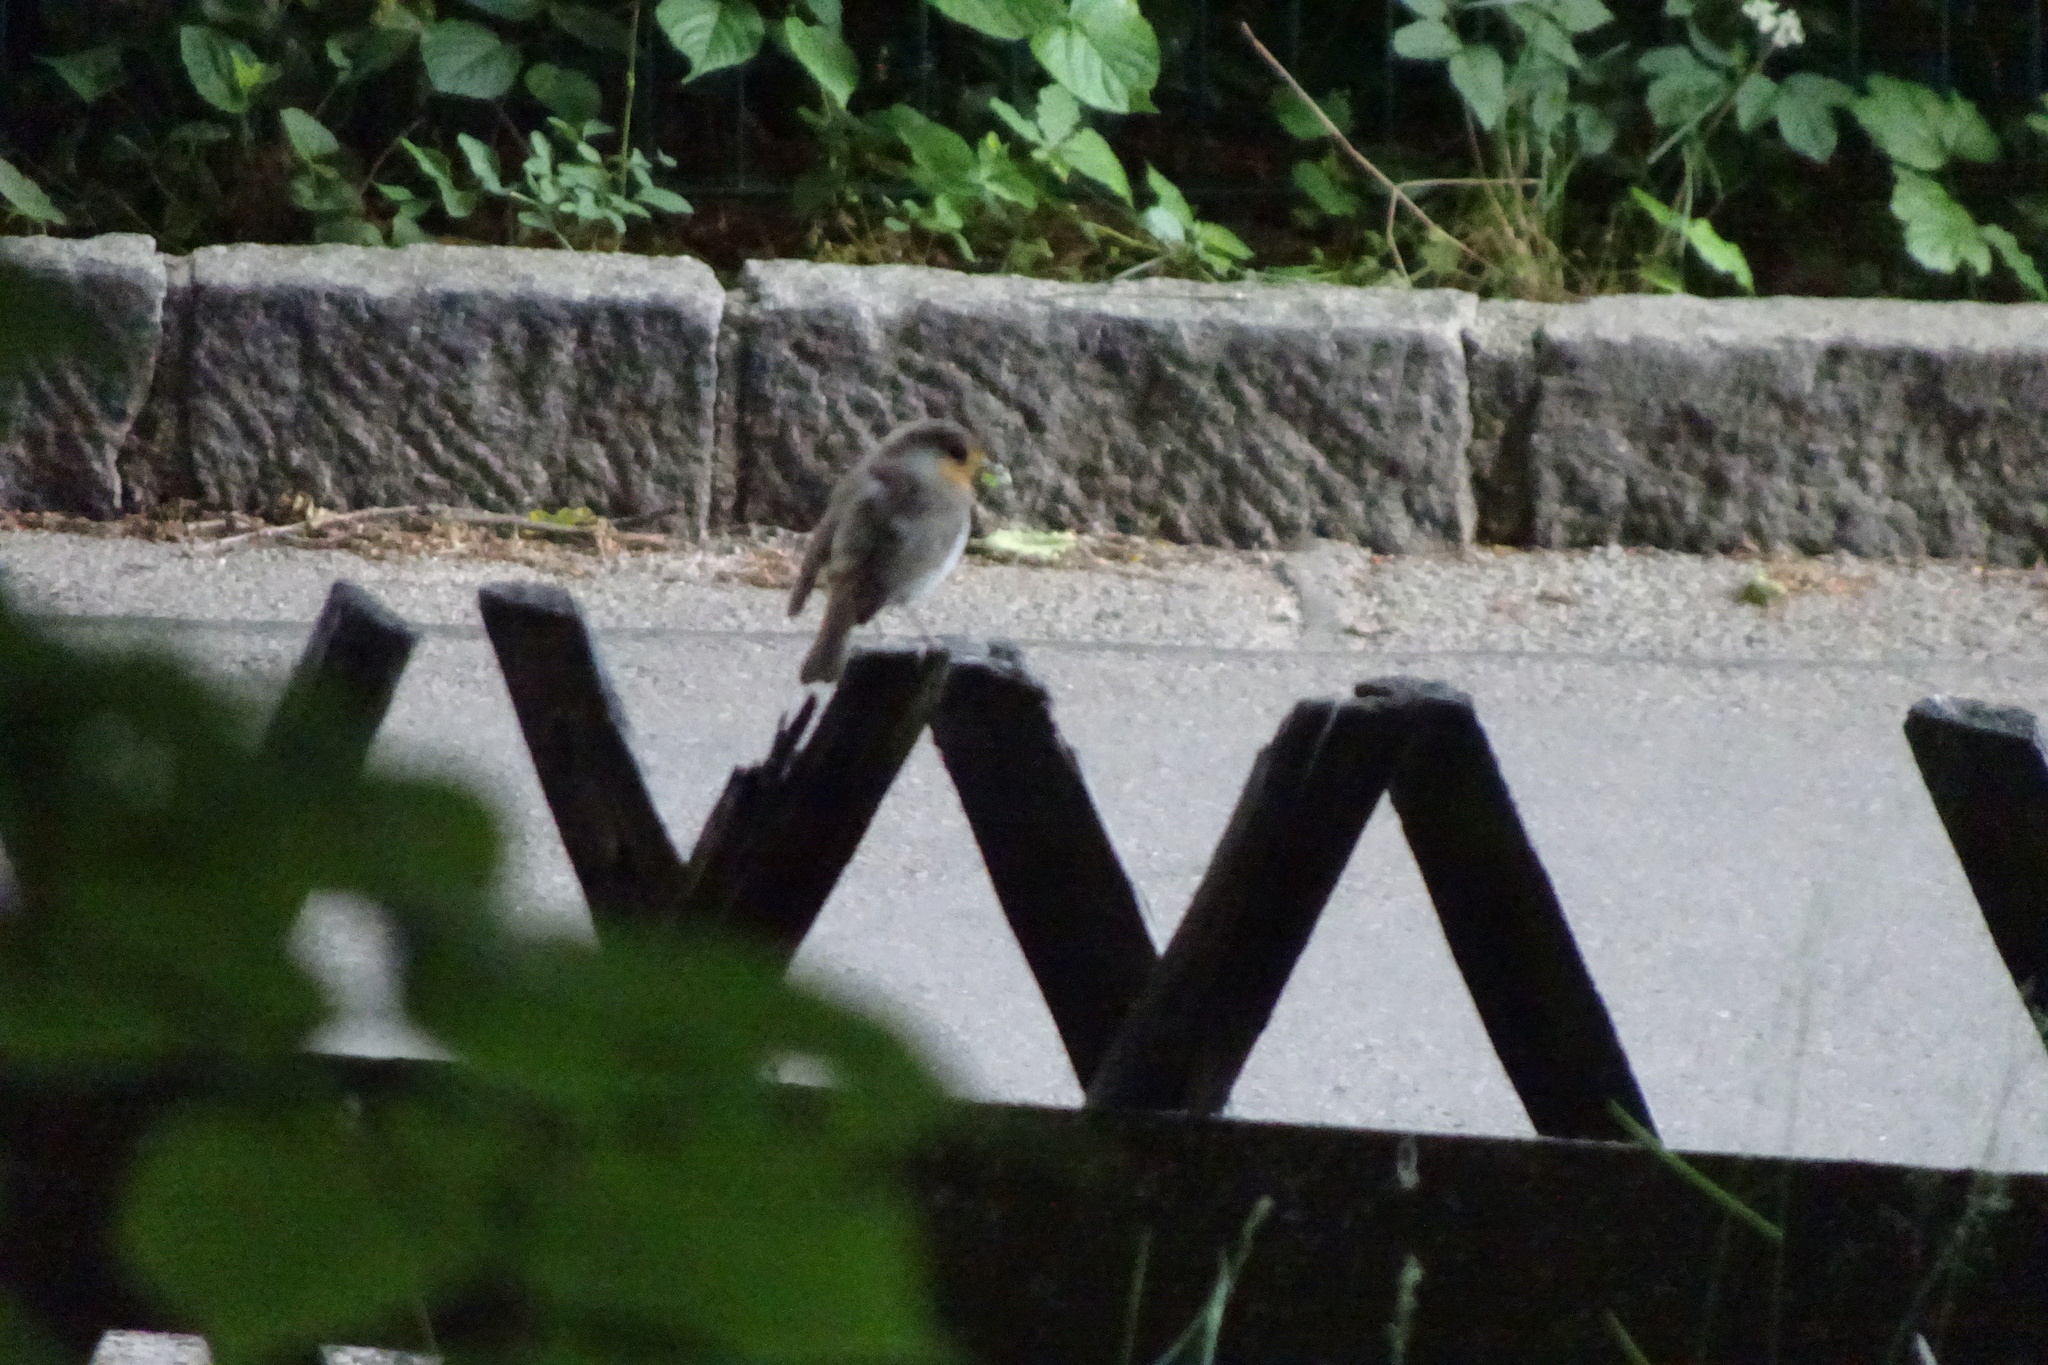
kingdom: Animalia
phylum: Chordata
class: Aves
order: Passeriformes
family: Muscicapidae
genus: Erithacus
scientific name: Erithacus rubecula
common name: European robin
